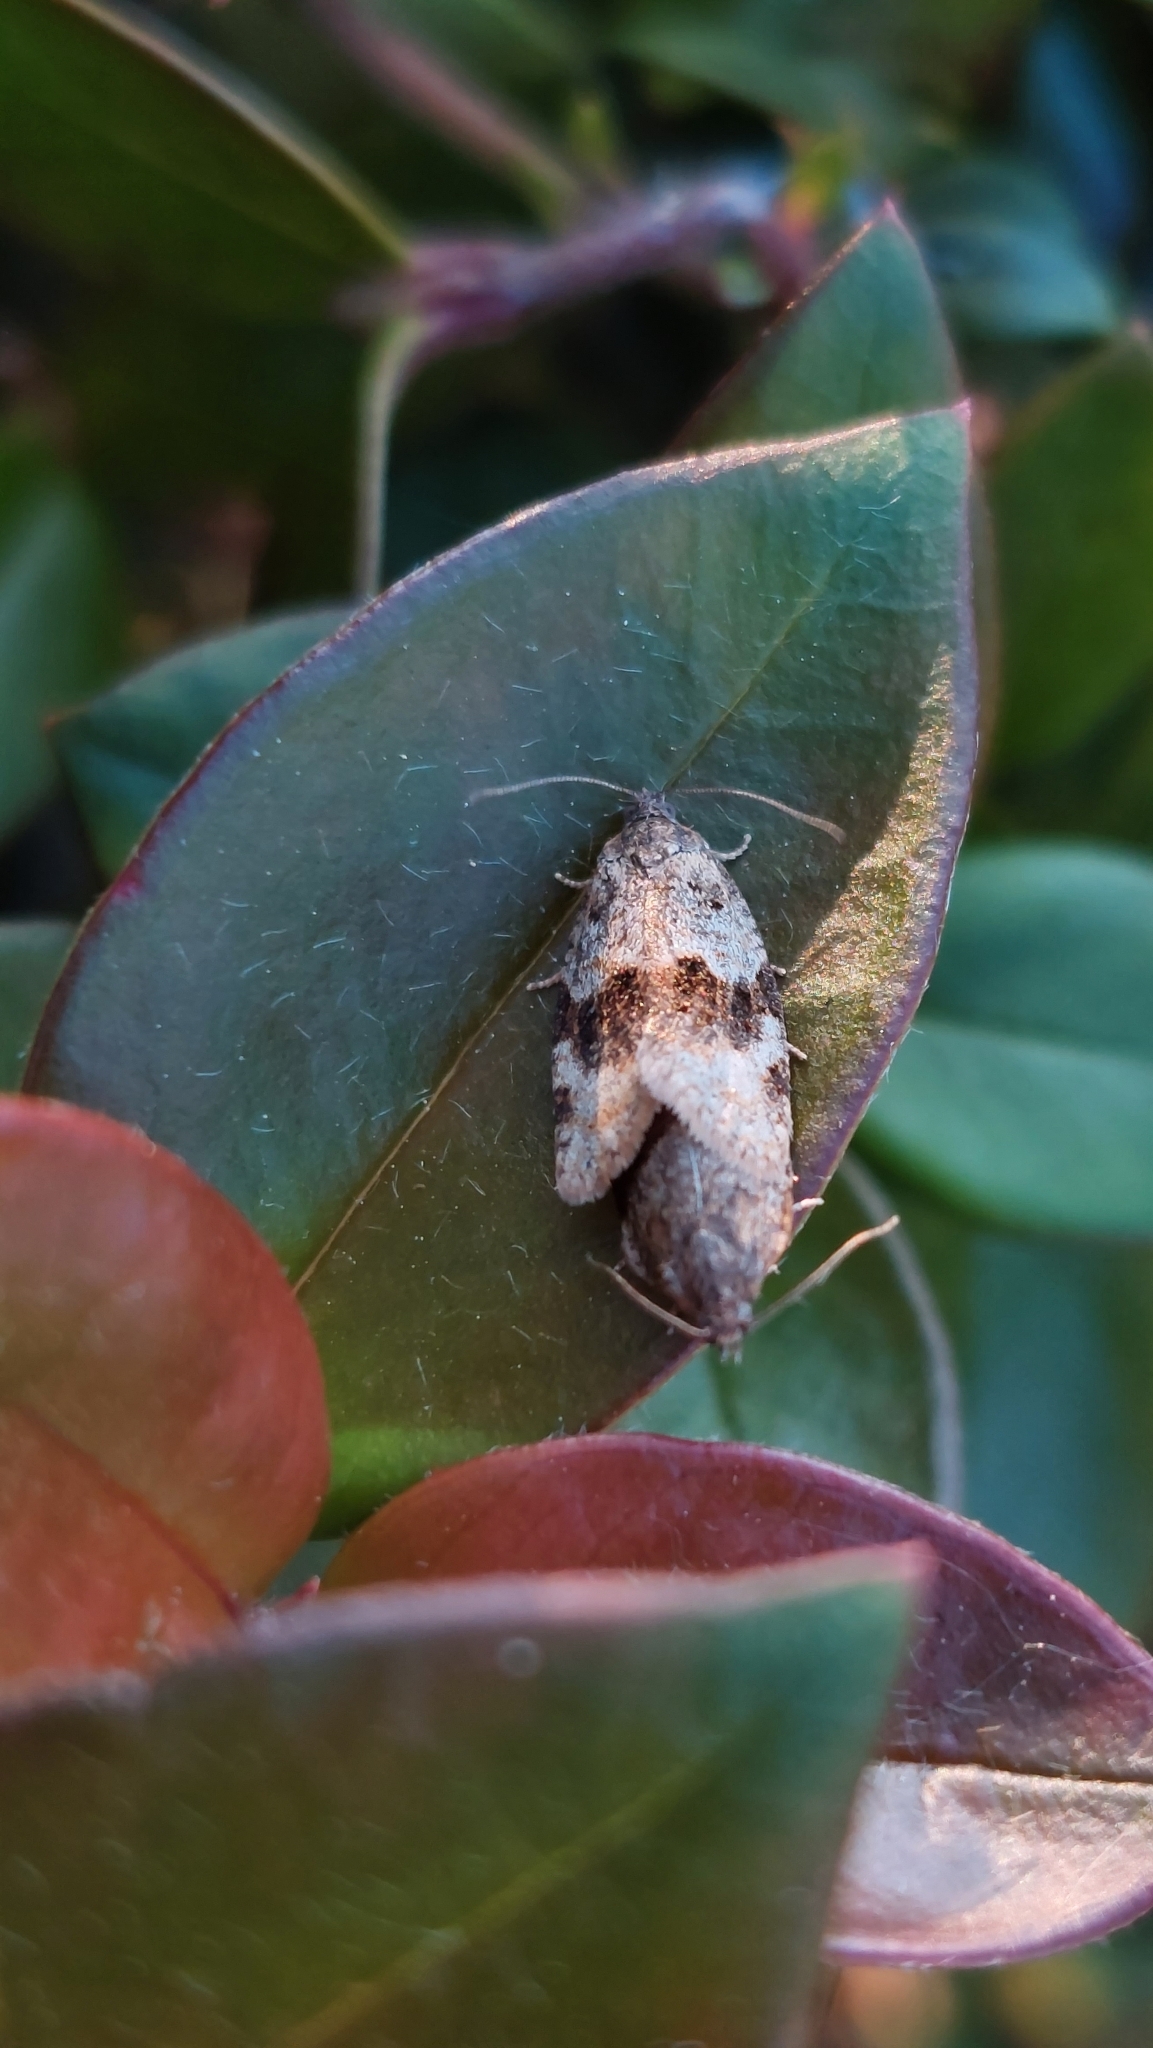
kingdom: Animalia
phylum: Arthropoda
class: Insecta
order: Lepidoptera
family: Tortricidae
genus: Syndemis
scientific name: Syndemis musculana
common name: Dark-barred twist
